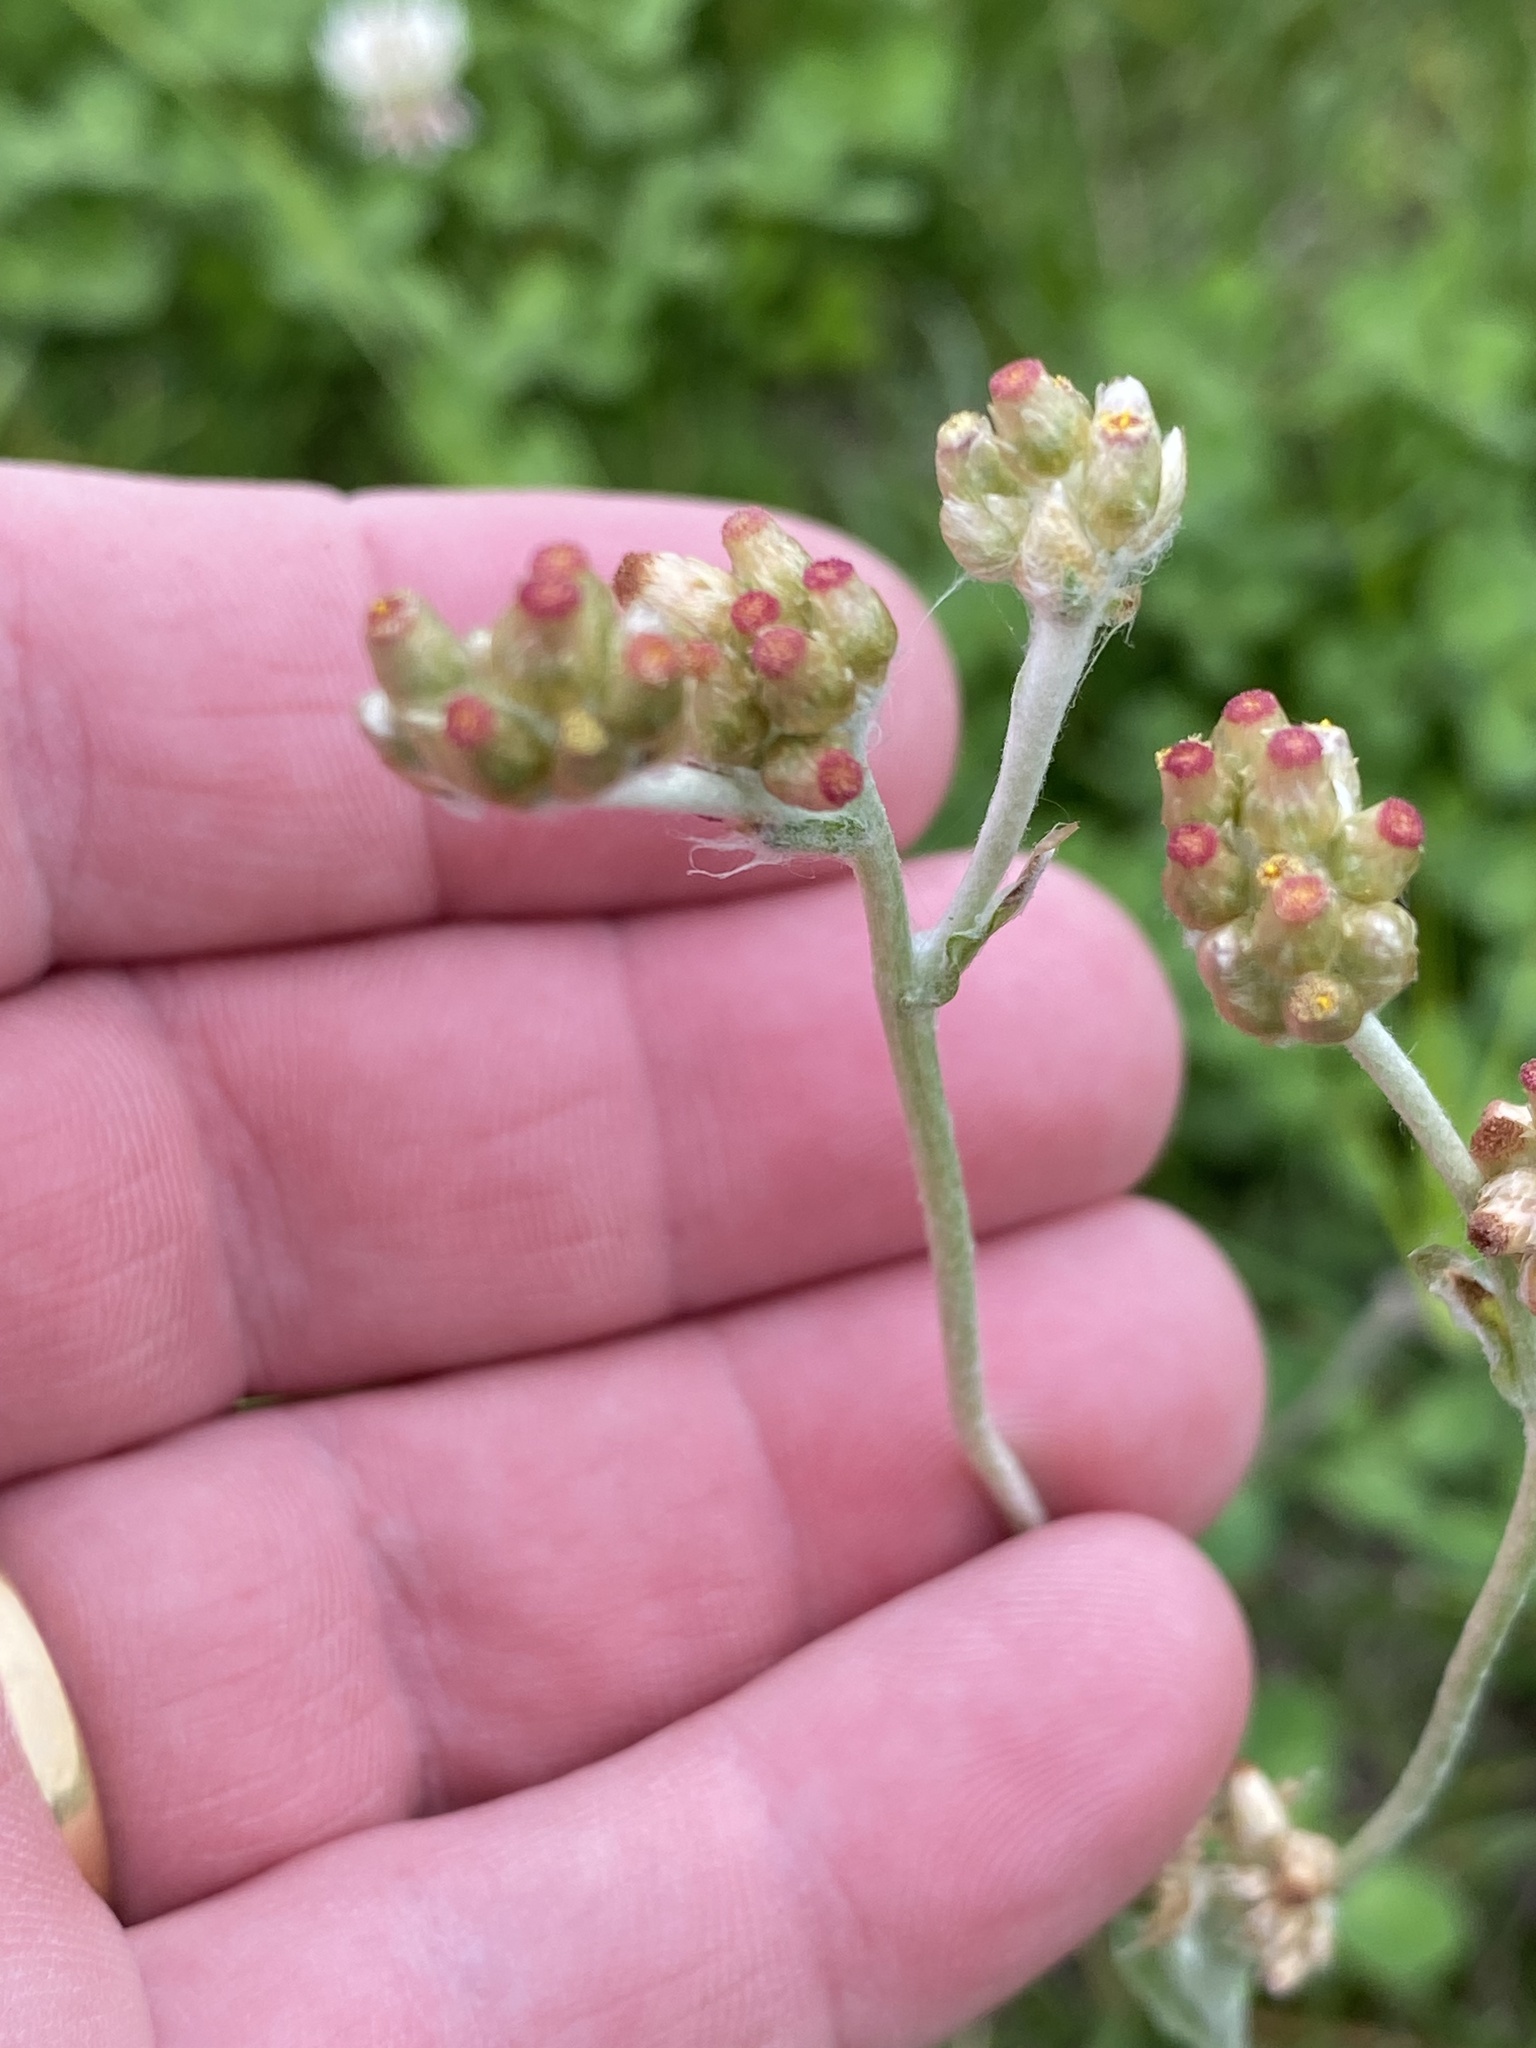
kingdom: Plantae
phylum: Tracheophyta
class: Magnoliopsida
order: Asterales
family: Asteraceae
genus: Helichrysum
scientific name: Helichrysum luteoalbum
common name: Daisy
